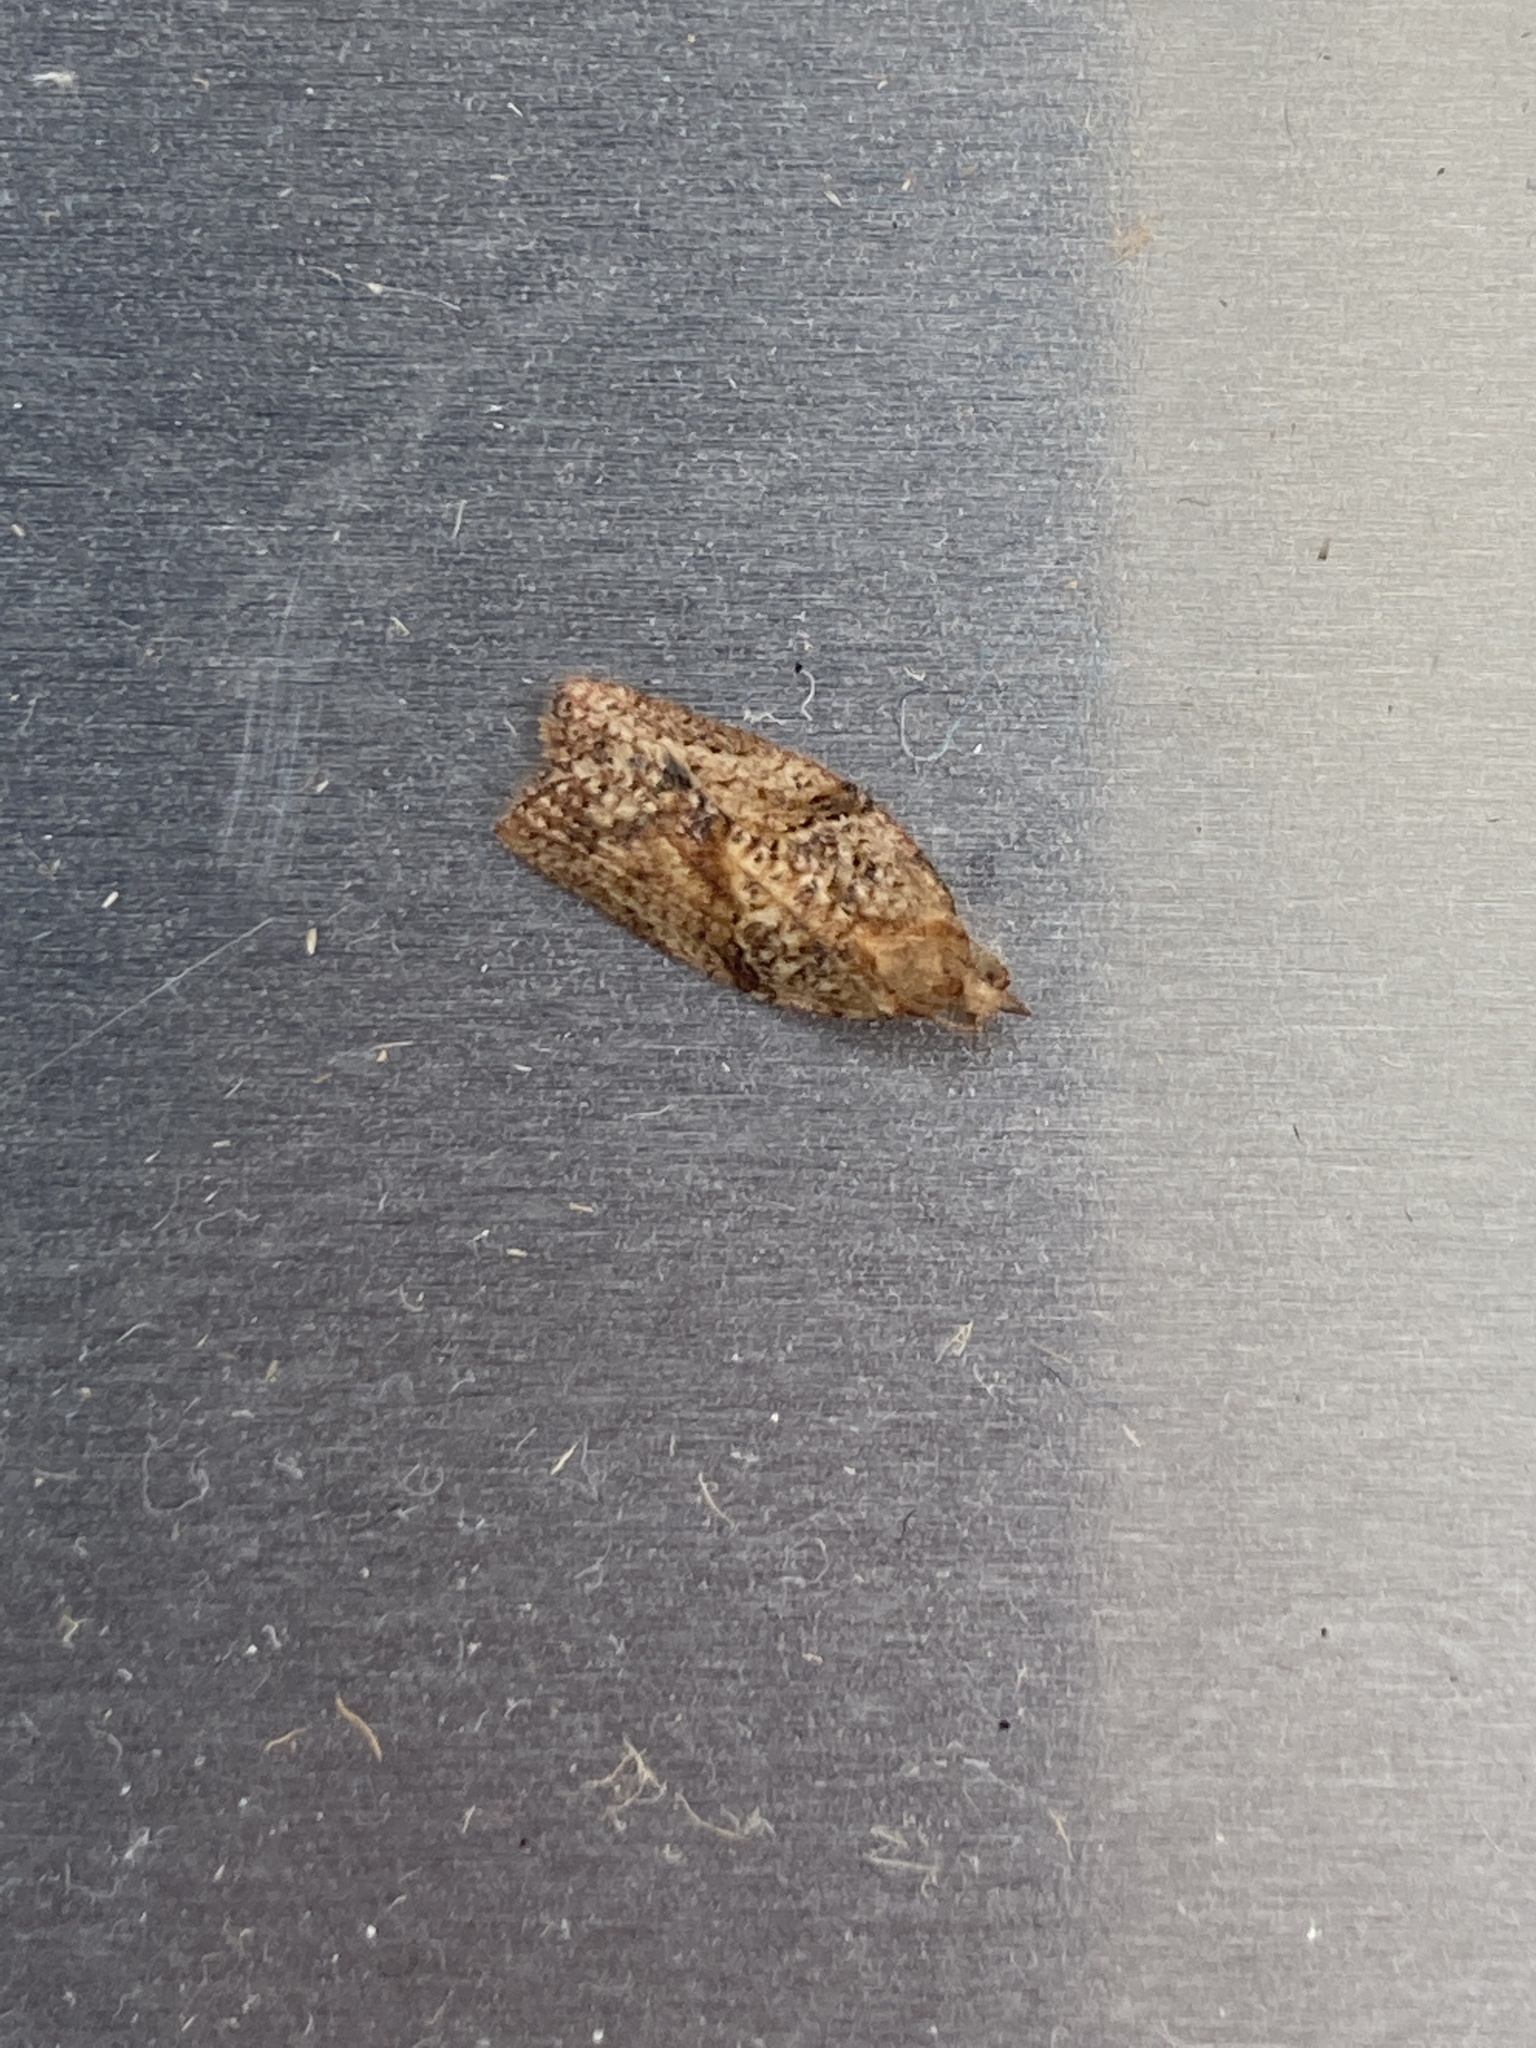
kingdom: Animalia
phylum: Arthropoda
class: Insecta
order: Lepidoptera
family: Tortricidae
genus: Epiphyas
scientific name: Epiphyas postvittana
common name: Light brown apple moth
